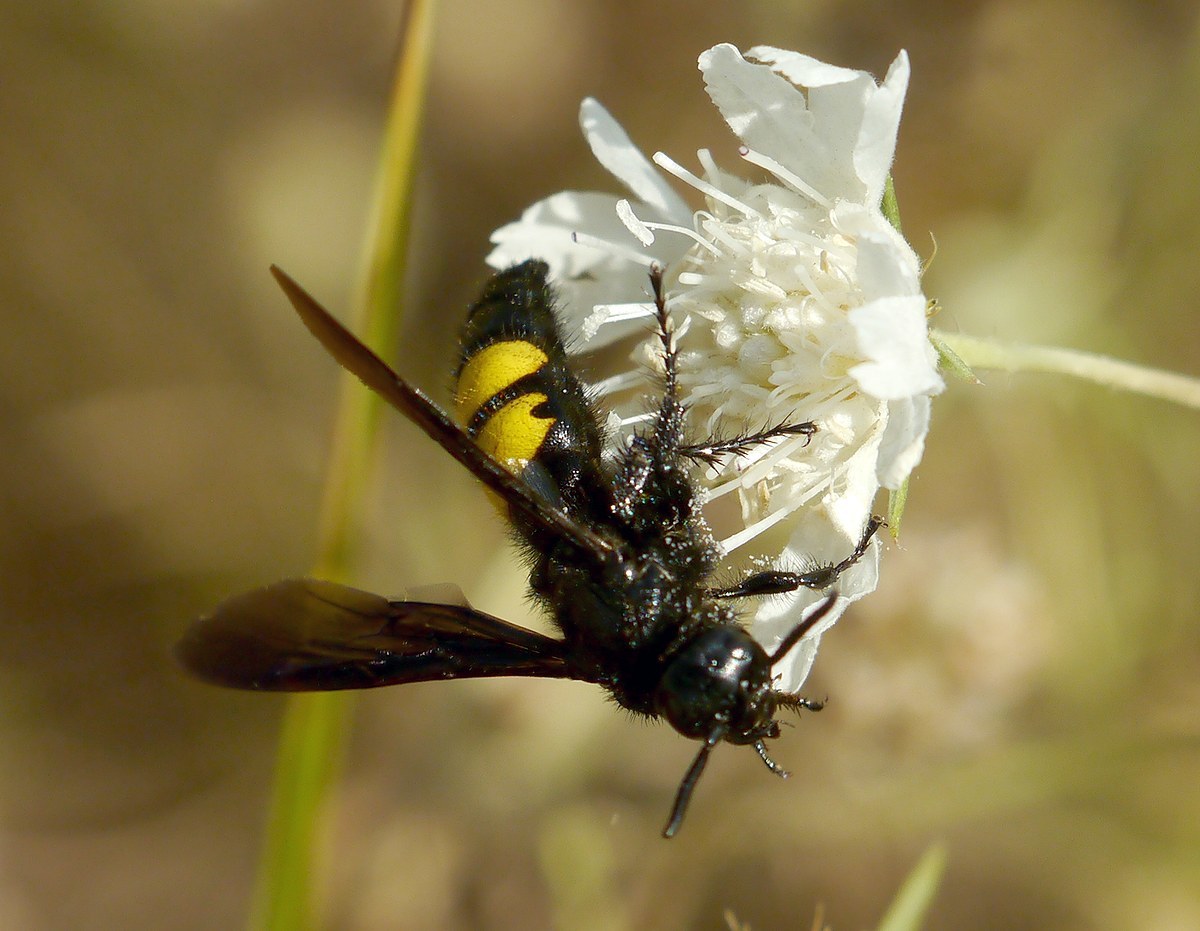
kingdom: Animalia
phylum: Arthropoda
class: Insecta
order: Hymenoptera
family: Scoliidae
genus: Scolia
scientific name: Scolia hirta
